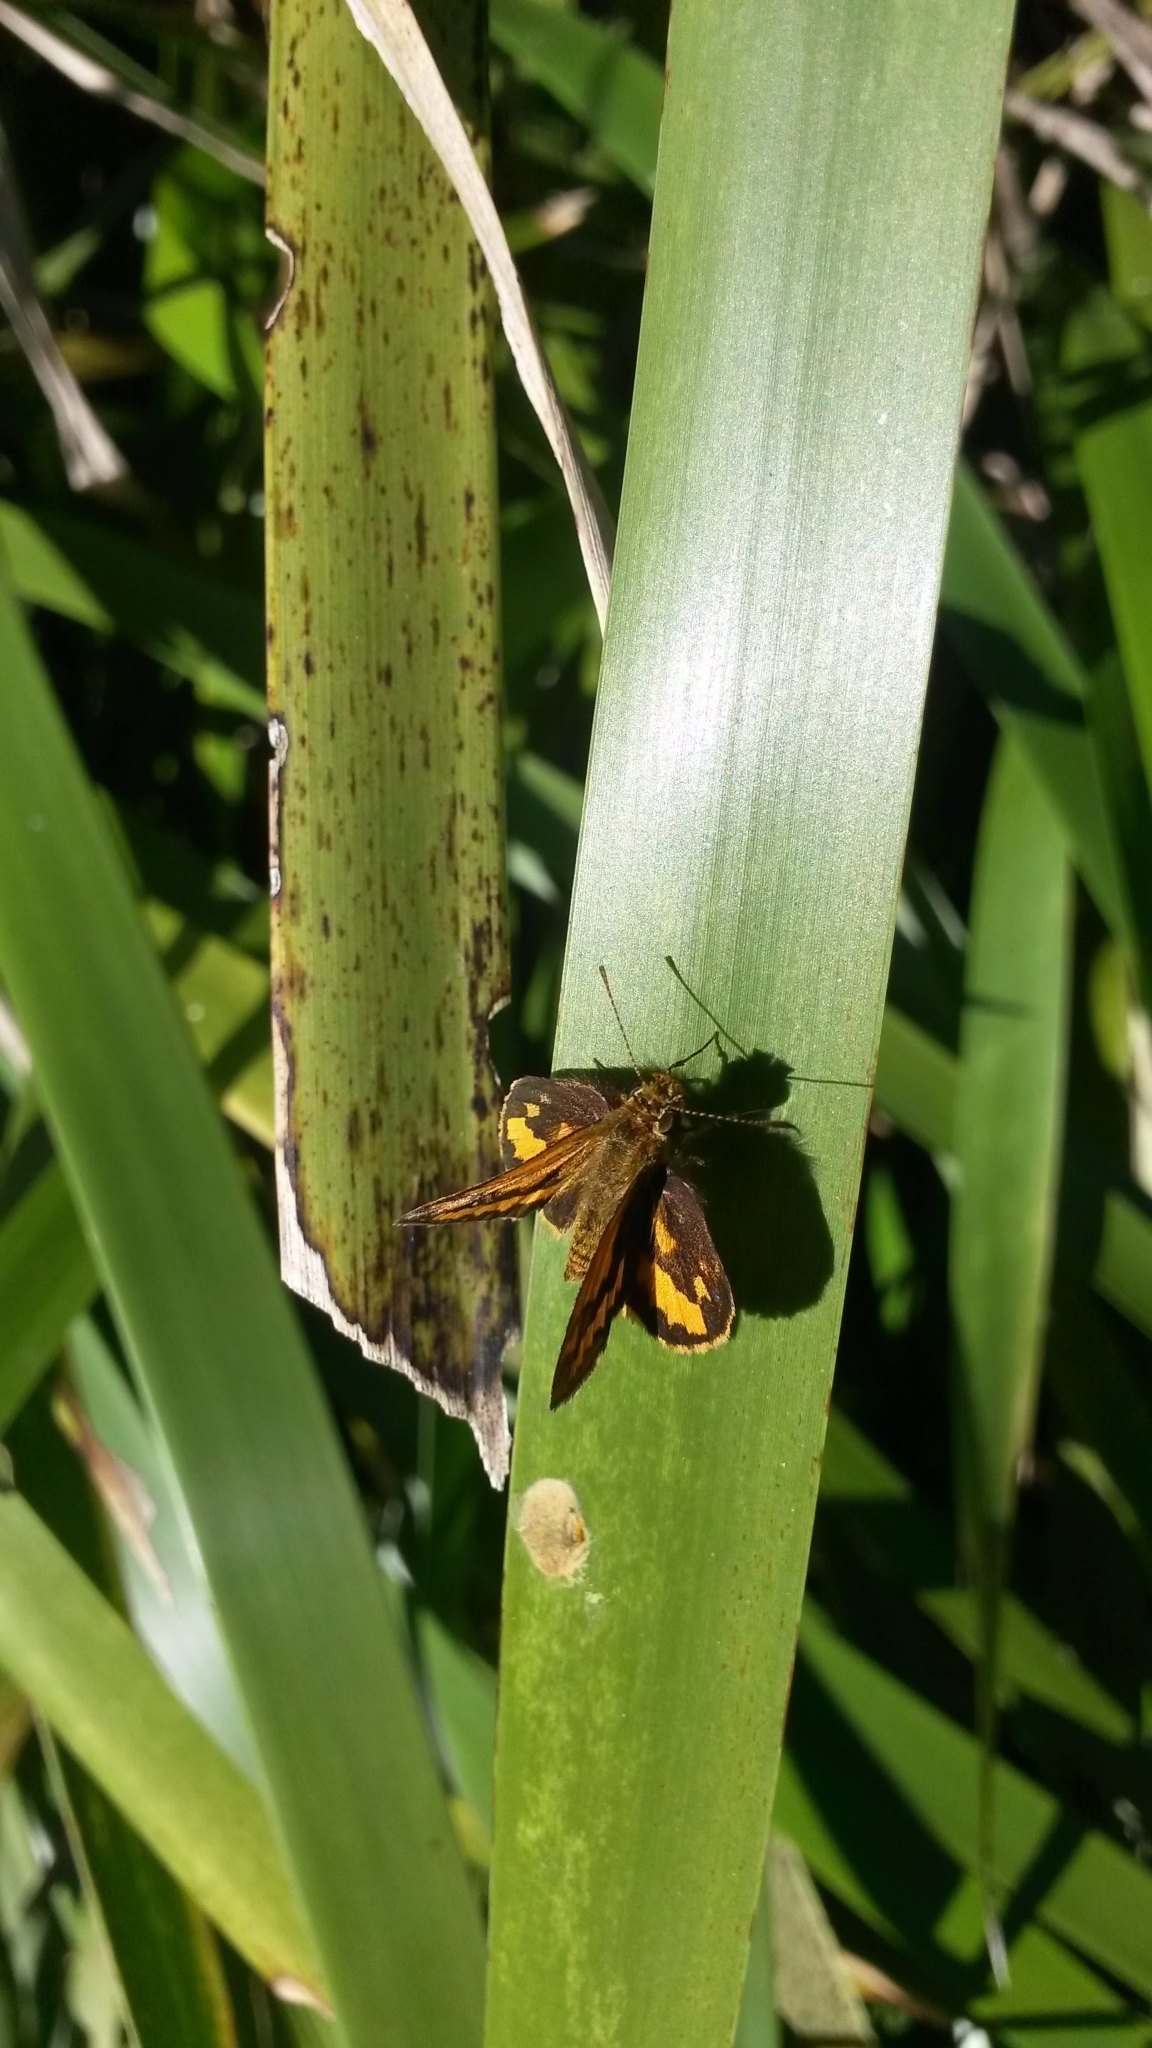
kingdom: Animalia
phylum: Arthropoda
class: Insecta
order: Lepidoptera
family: Hesperiidae
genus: Suniana
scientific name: Suniana sunias
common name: Wide-brand grass-dart
